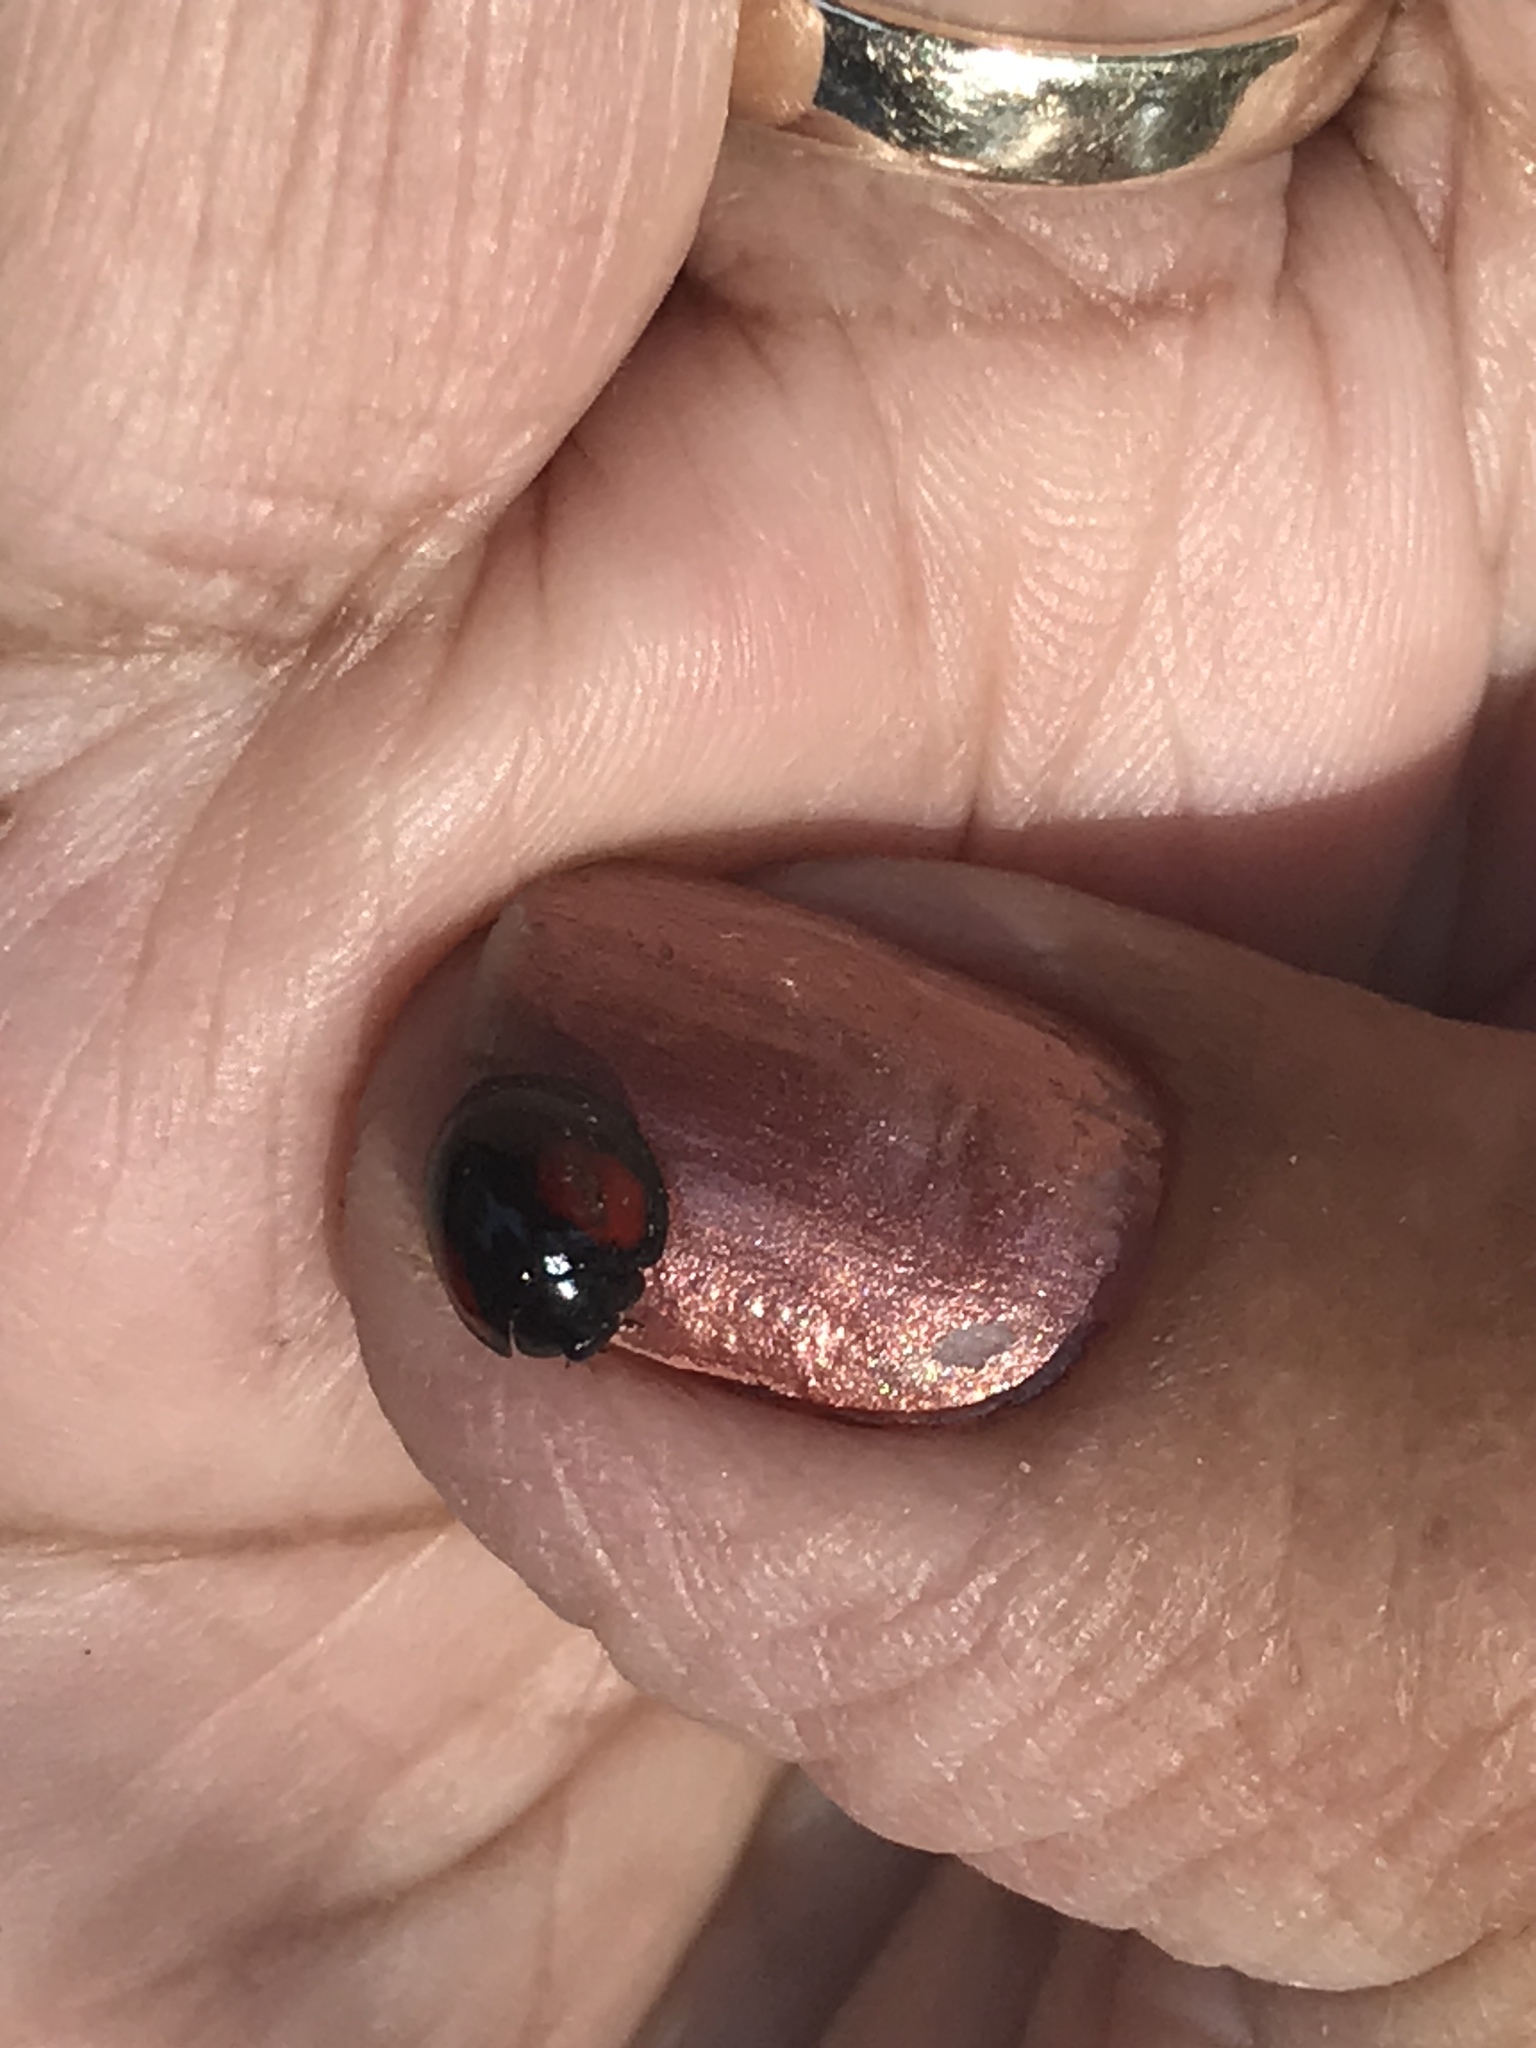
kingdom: Animalia
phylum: Arthropoda
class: Insecta
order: Coleoptera
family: Coccinellidae
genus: Axion
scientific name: Axion plagiatum
